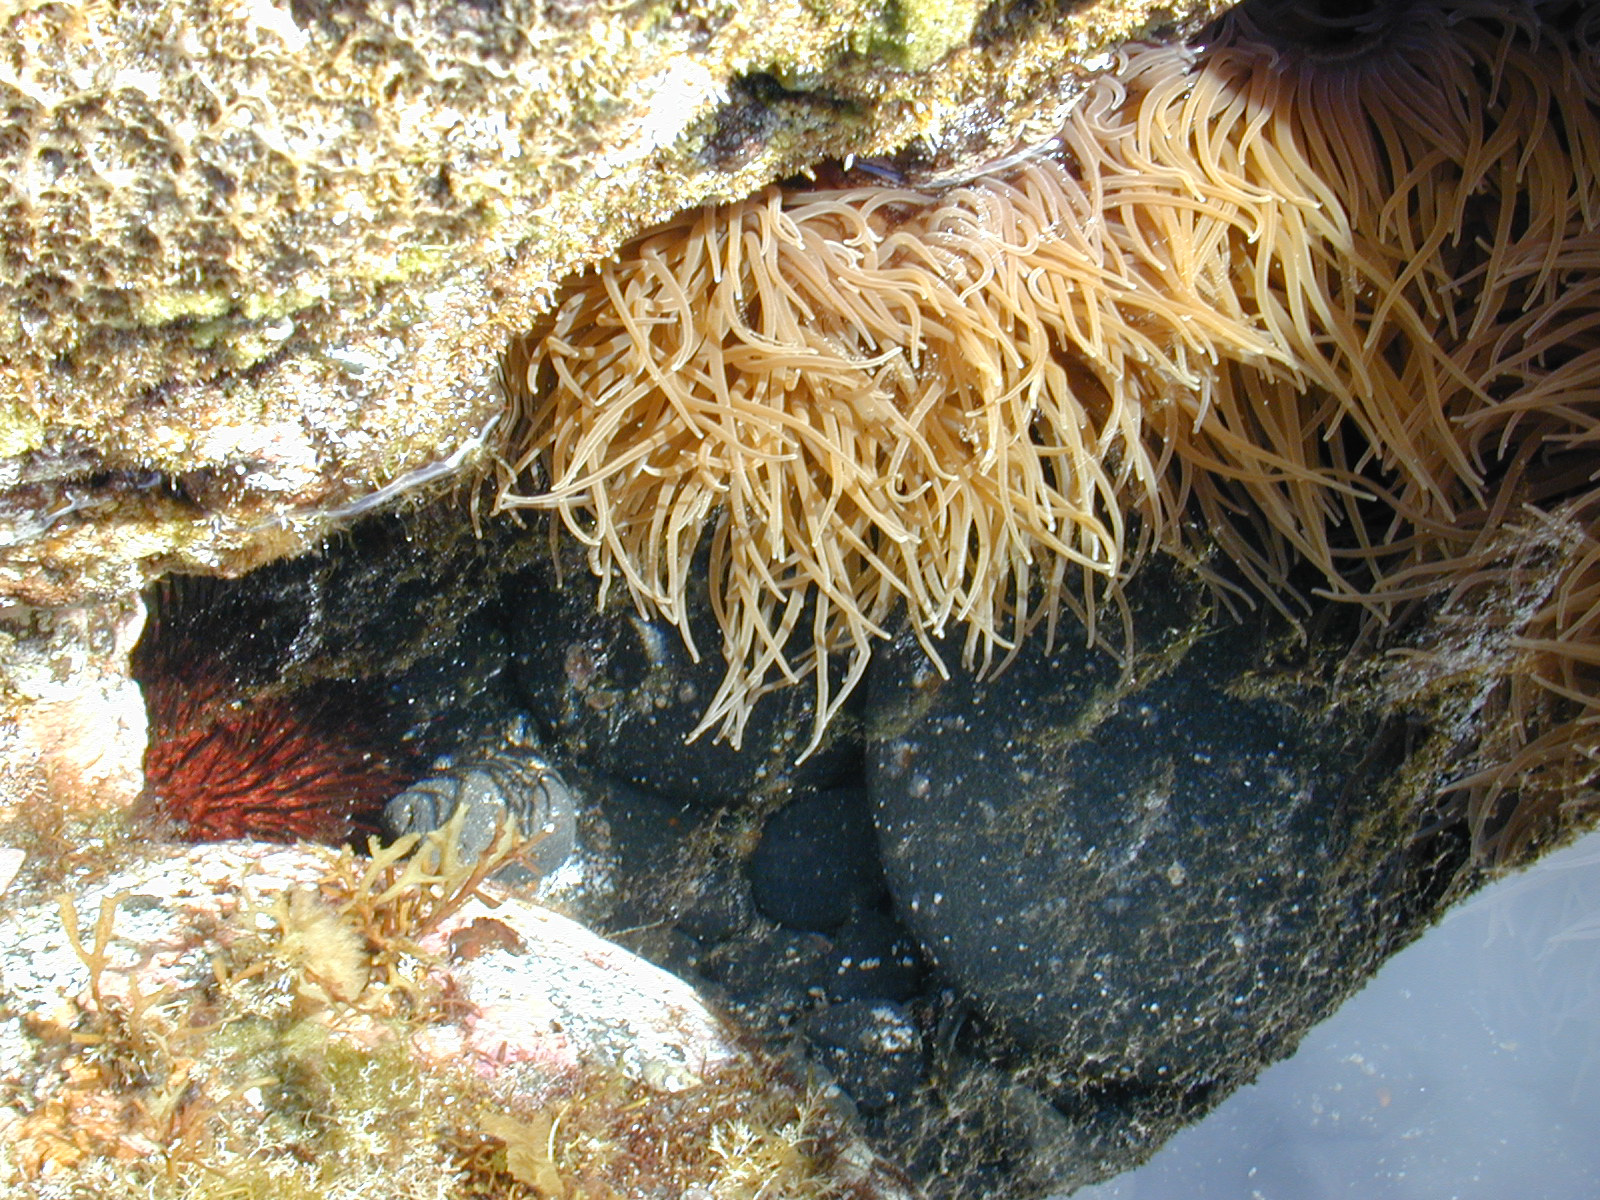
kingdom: Animalia
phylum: Cnidaria
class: Anthozoa
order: Actiniaria
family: Actiniidae
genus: Anemonia
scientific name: Anemonia viridis
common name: Snakelocks anemone
